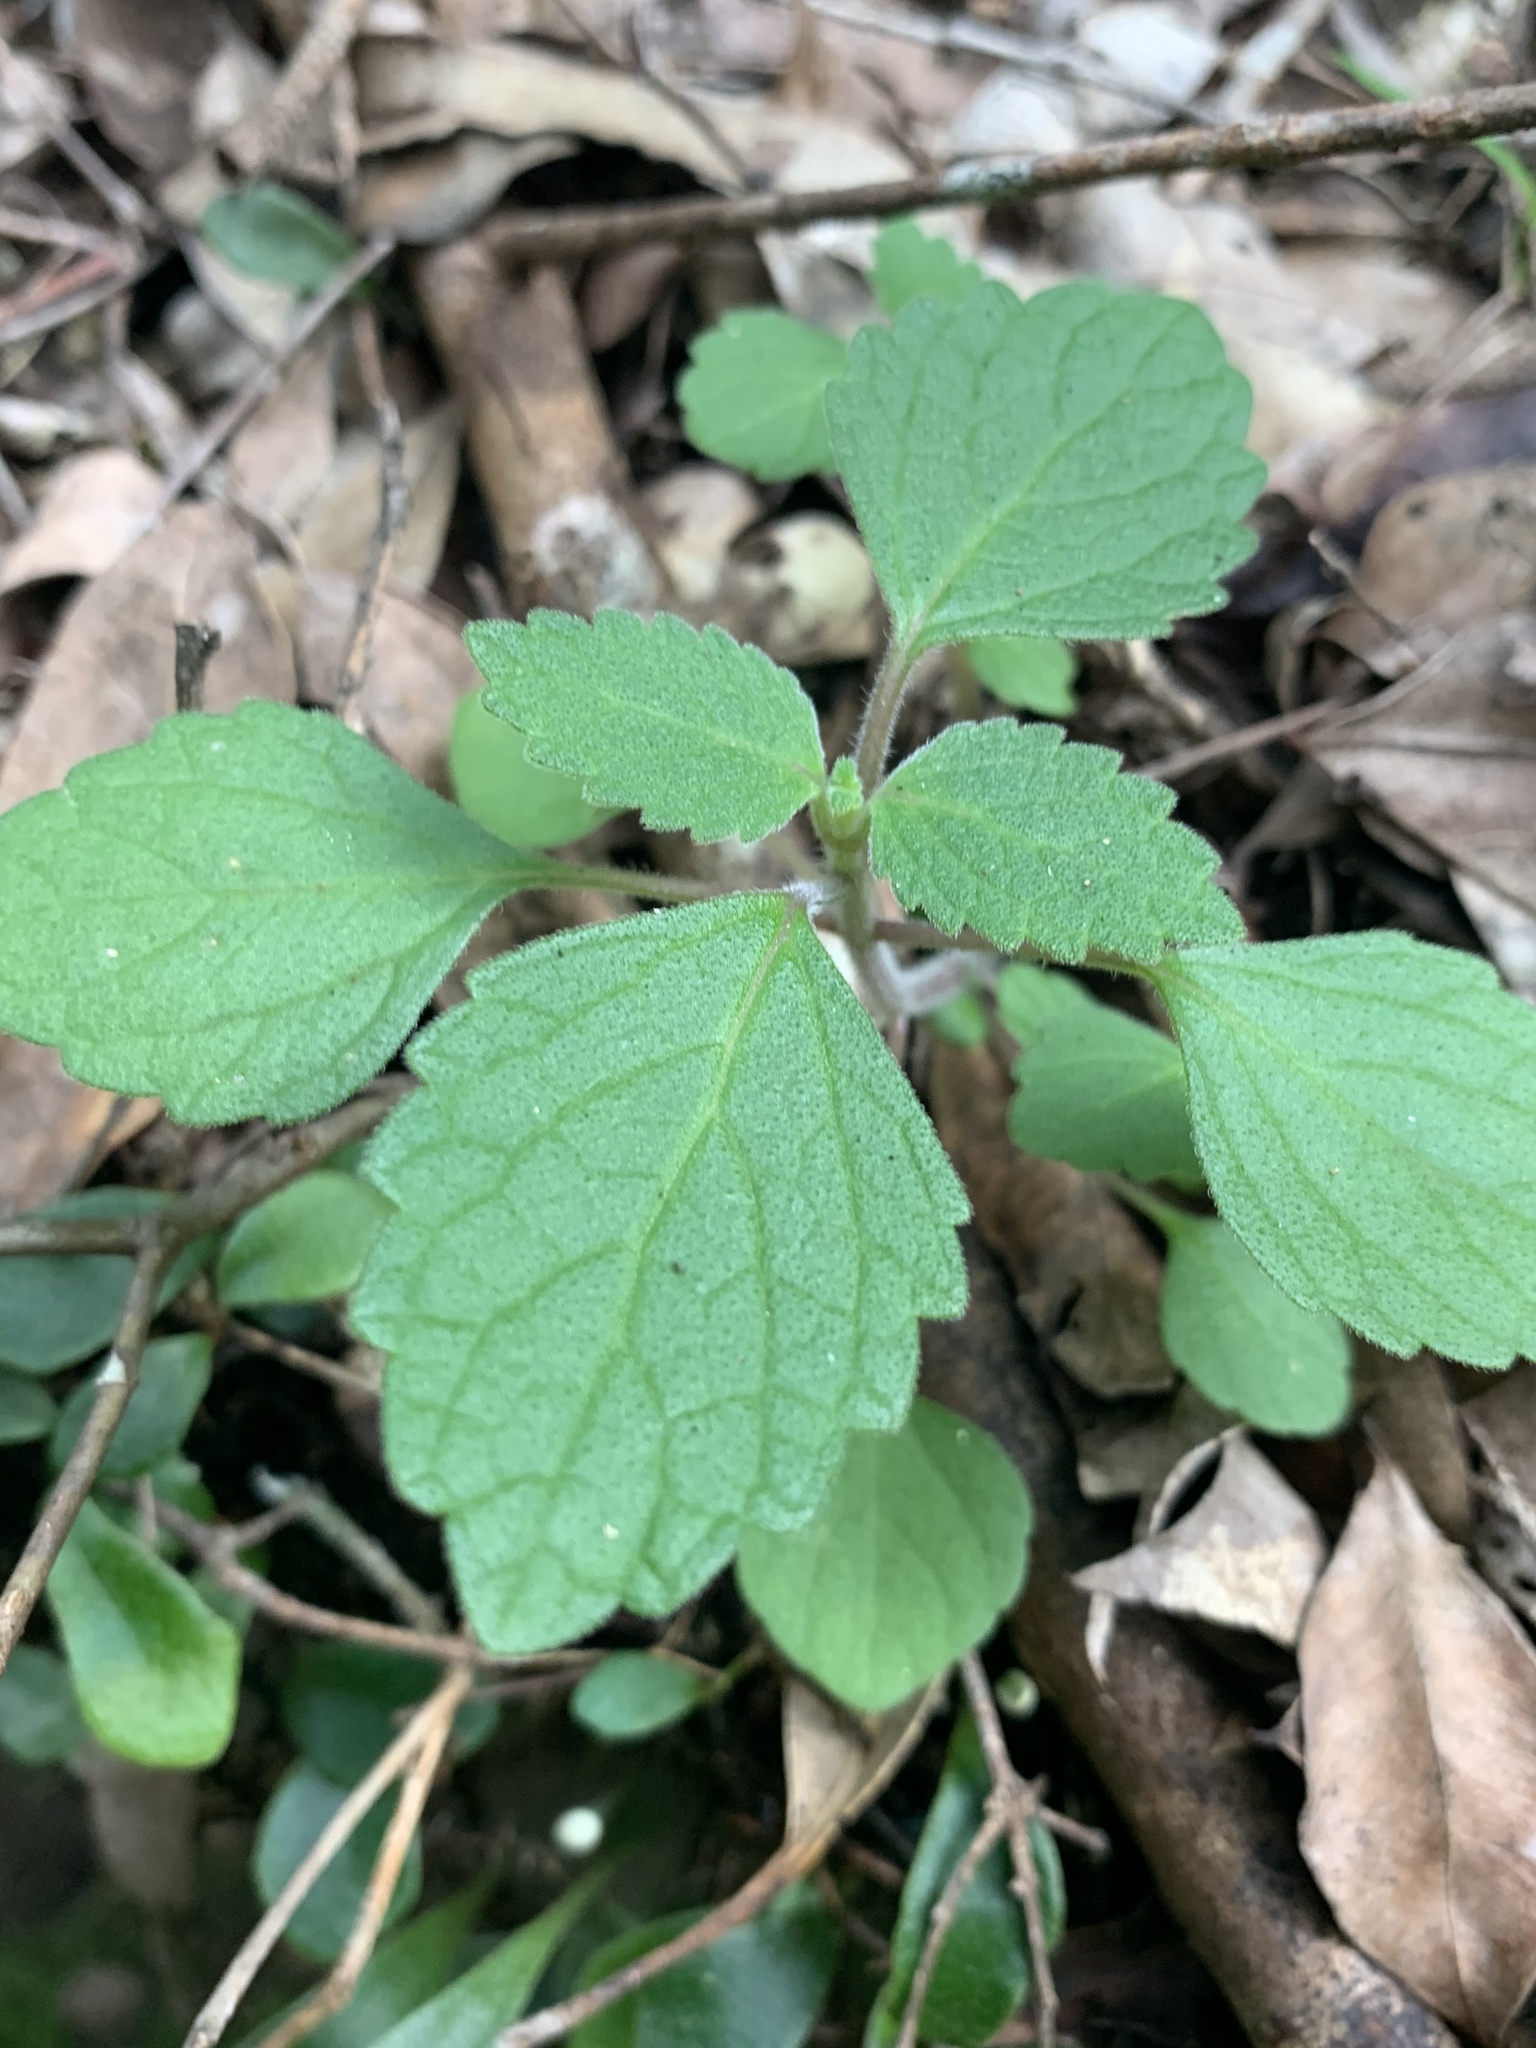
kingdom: Plantae
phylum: Tracheophyta
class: Magnoliopsida
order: Lamiales
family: Lamiaceae
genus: Coleus
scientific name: Coleus australis
